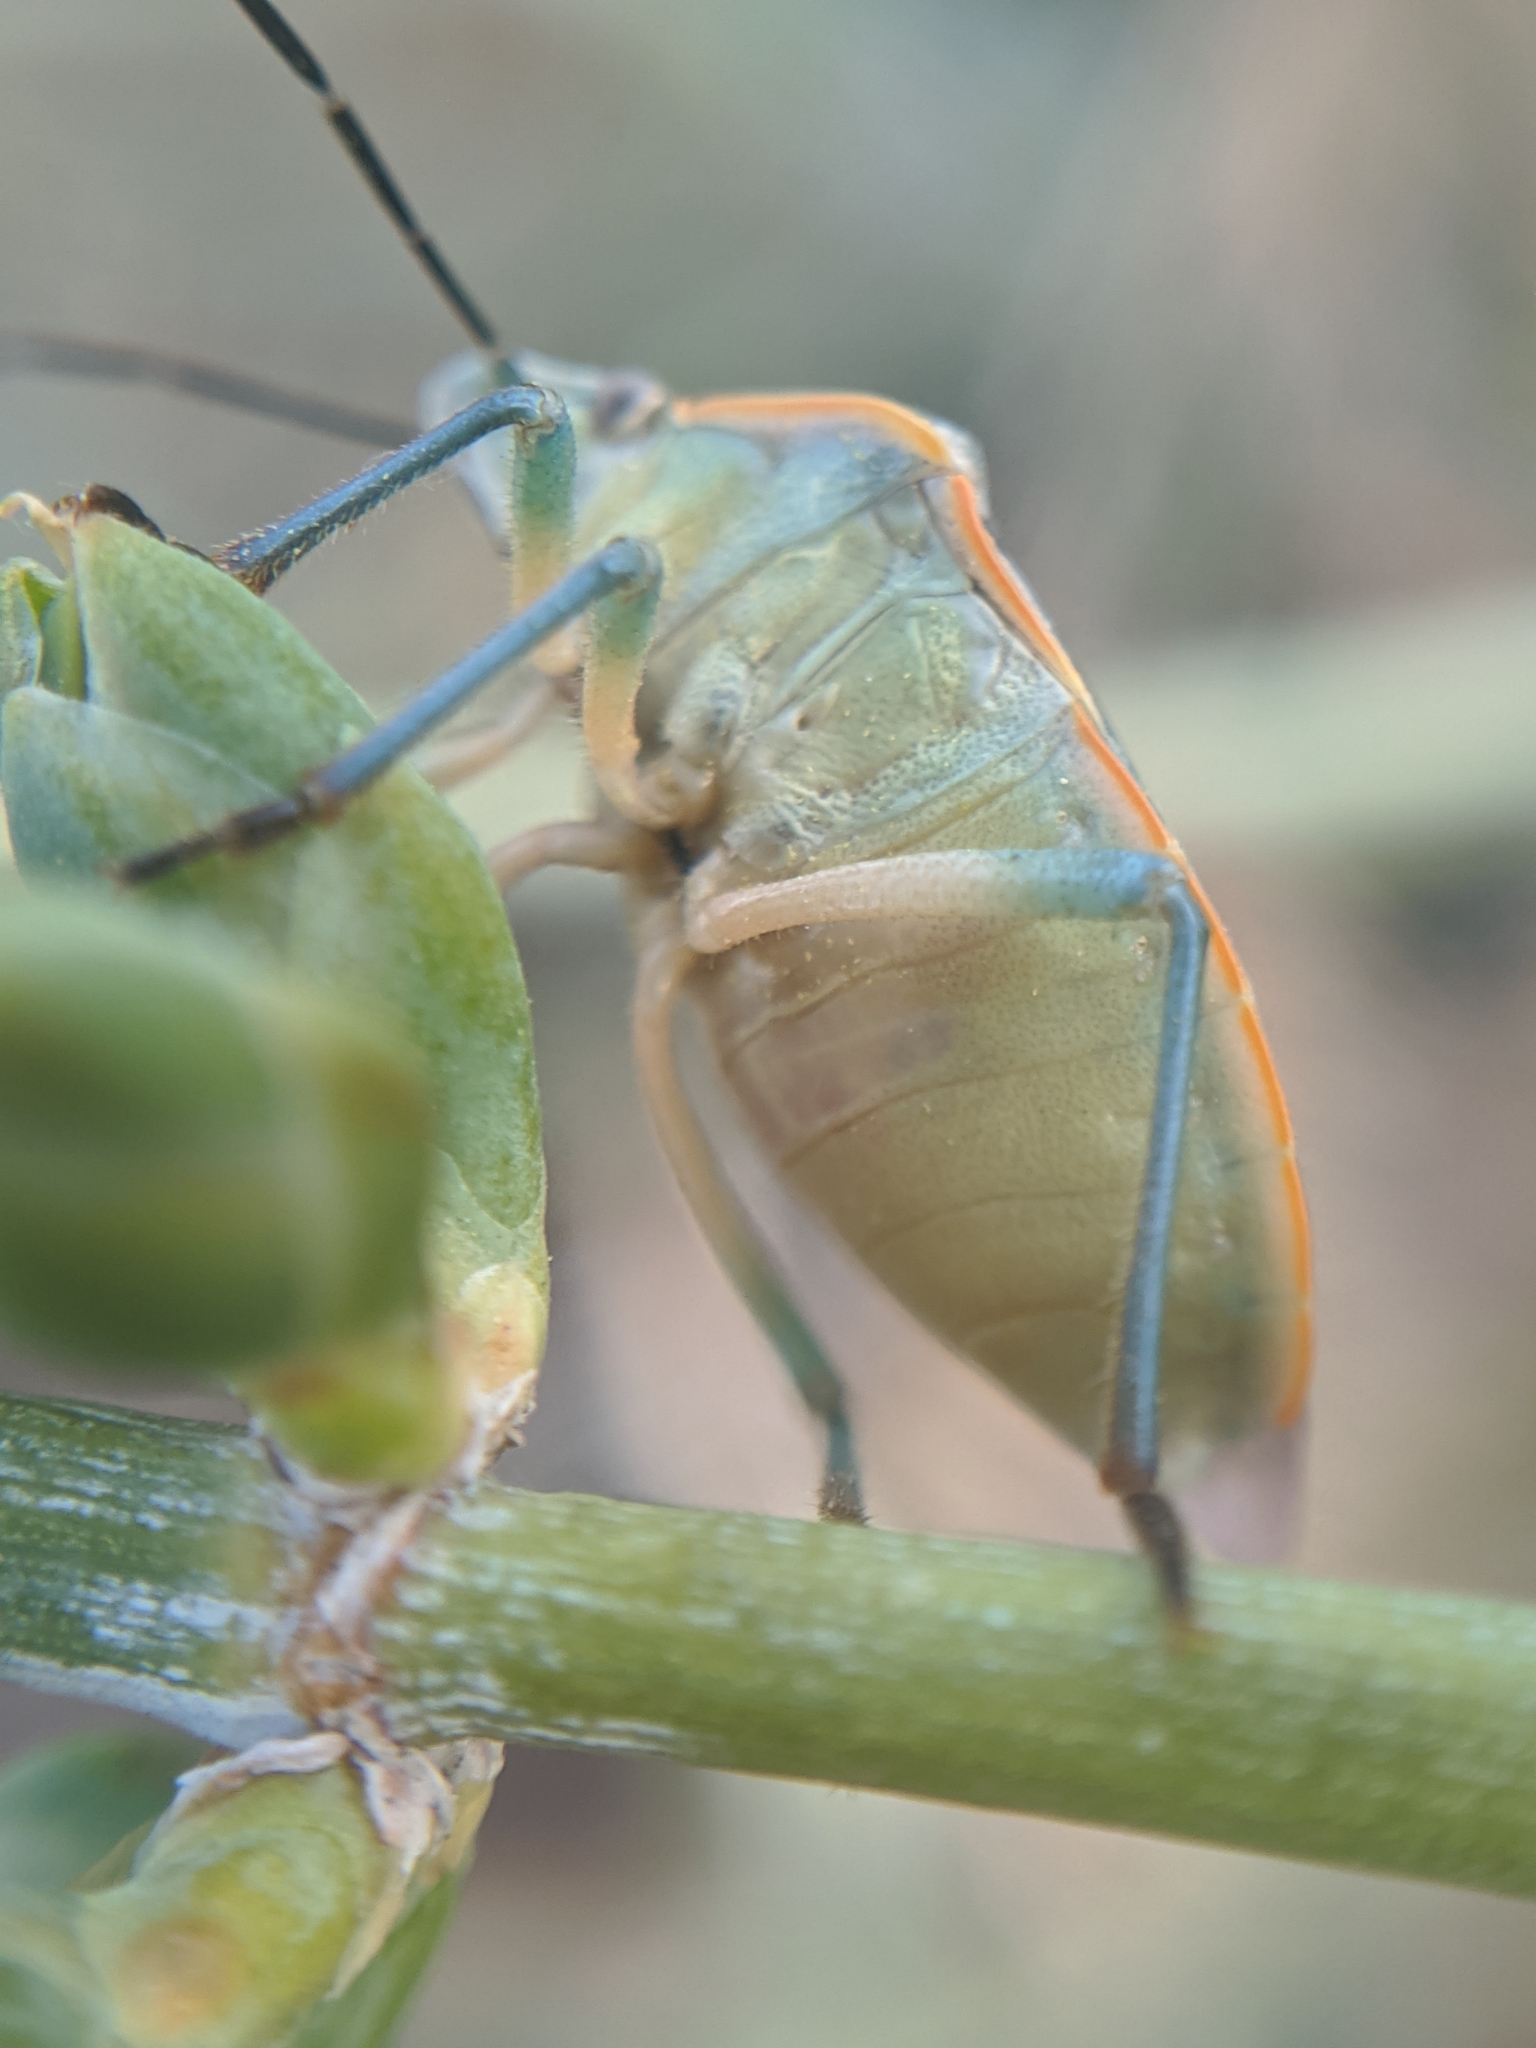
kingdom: Animalia
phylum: Arthropoda
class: Insecta
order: Hemiptera
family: Pentatomidae
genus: Chlorochroa
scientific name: Chlorochroa sayi
